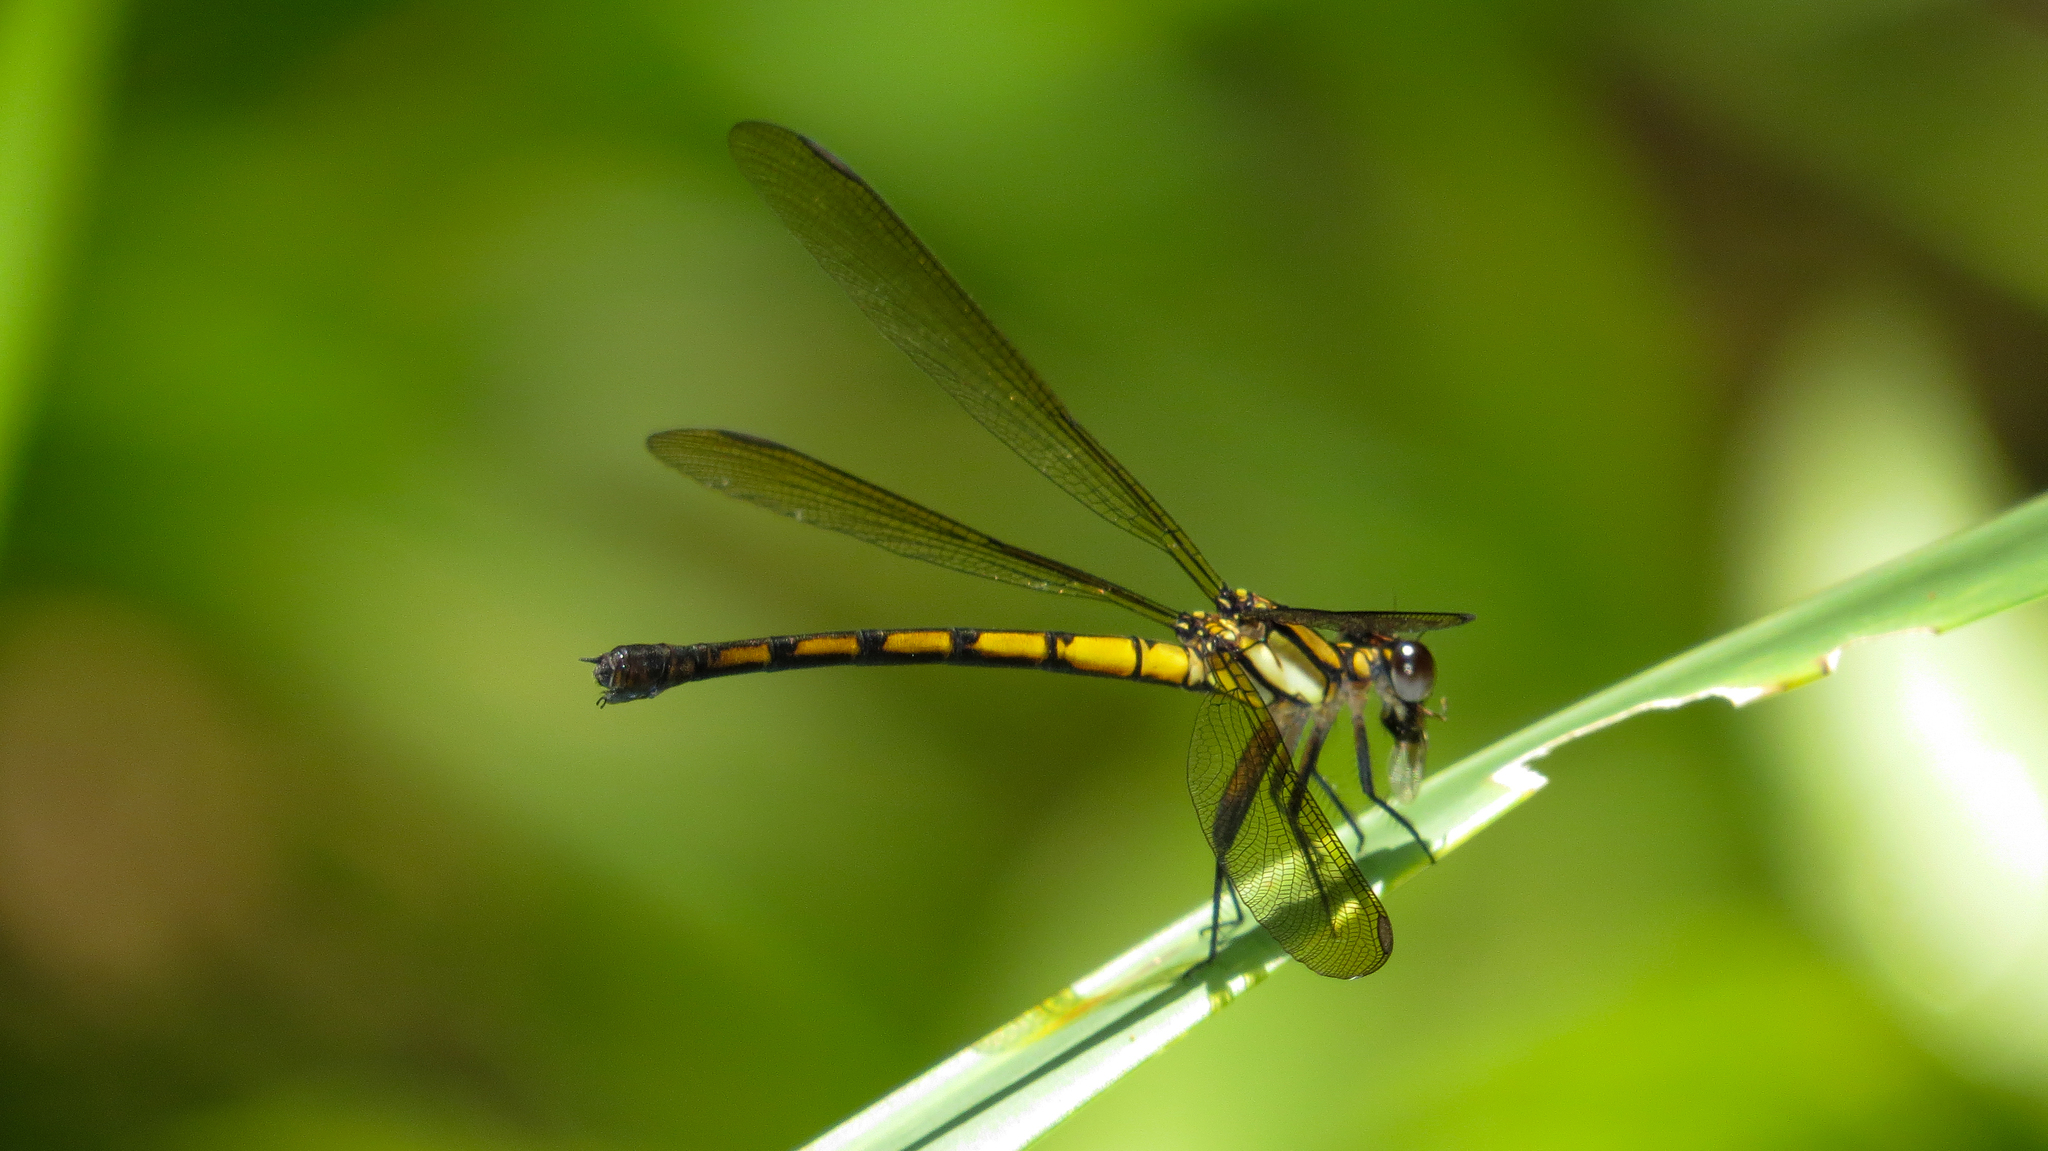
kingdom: Animalia
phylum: Arthropoda
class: Insecta
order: Odonata
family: Lestoideidae
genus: Diphlebia
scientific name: Diphlebia coerulescens
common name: Sapphire rockmaster
